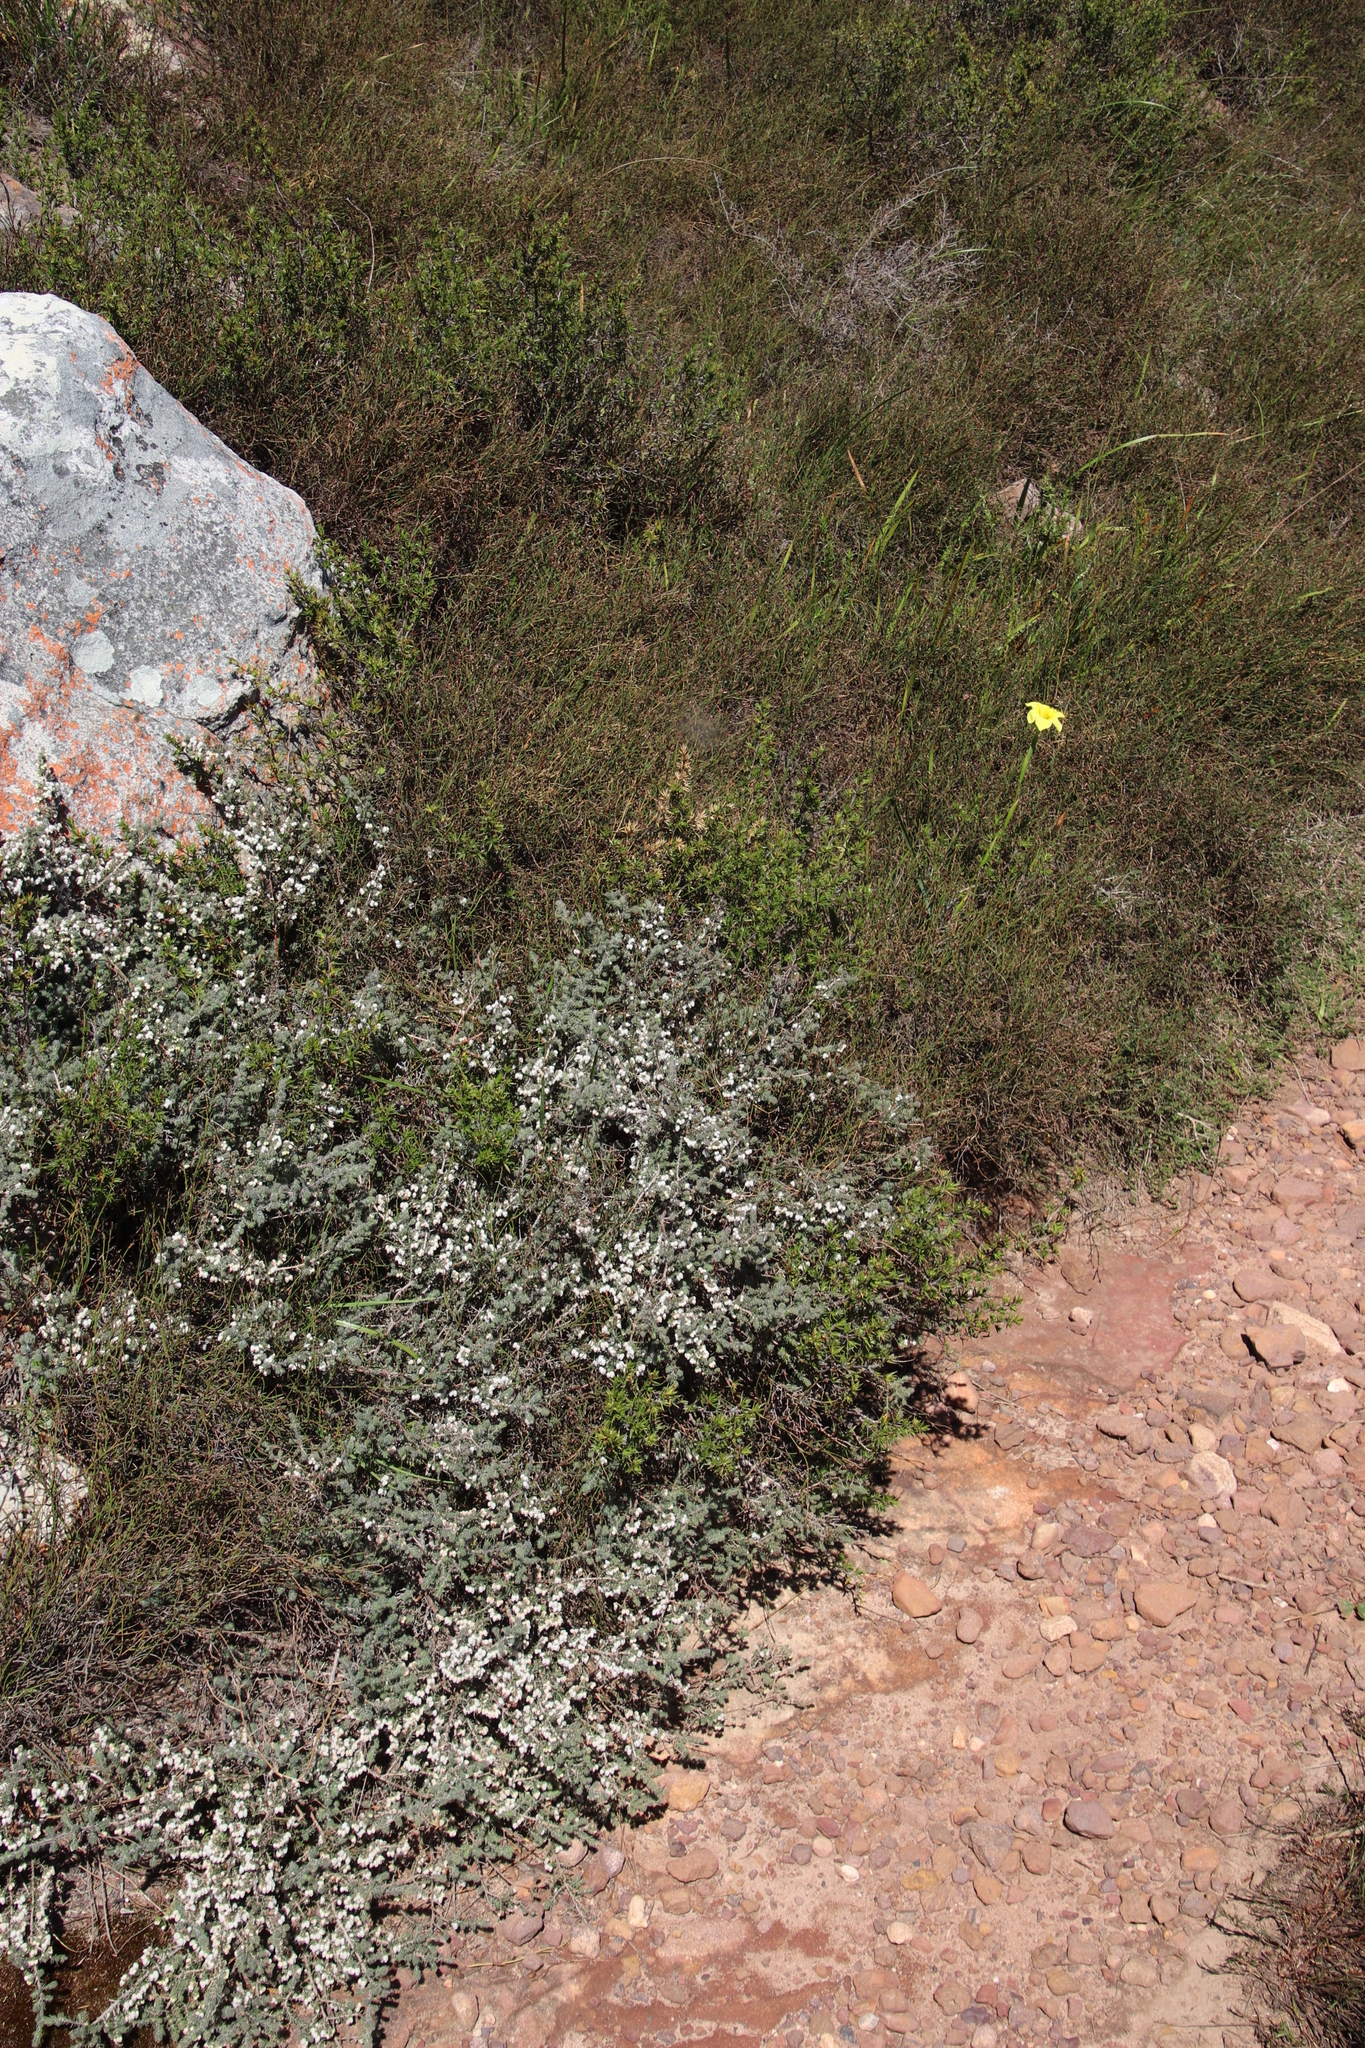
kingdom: Plantae
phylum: Tracheophyta
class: Magnoliopsida
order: Ericales
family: Ericaceae
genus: Erica
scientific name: Erica totta
